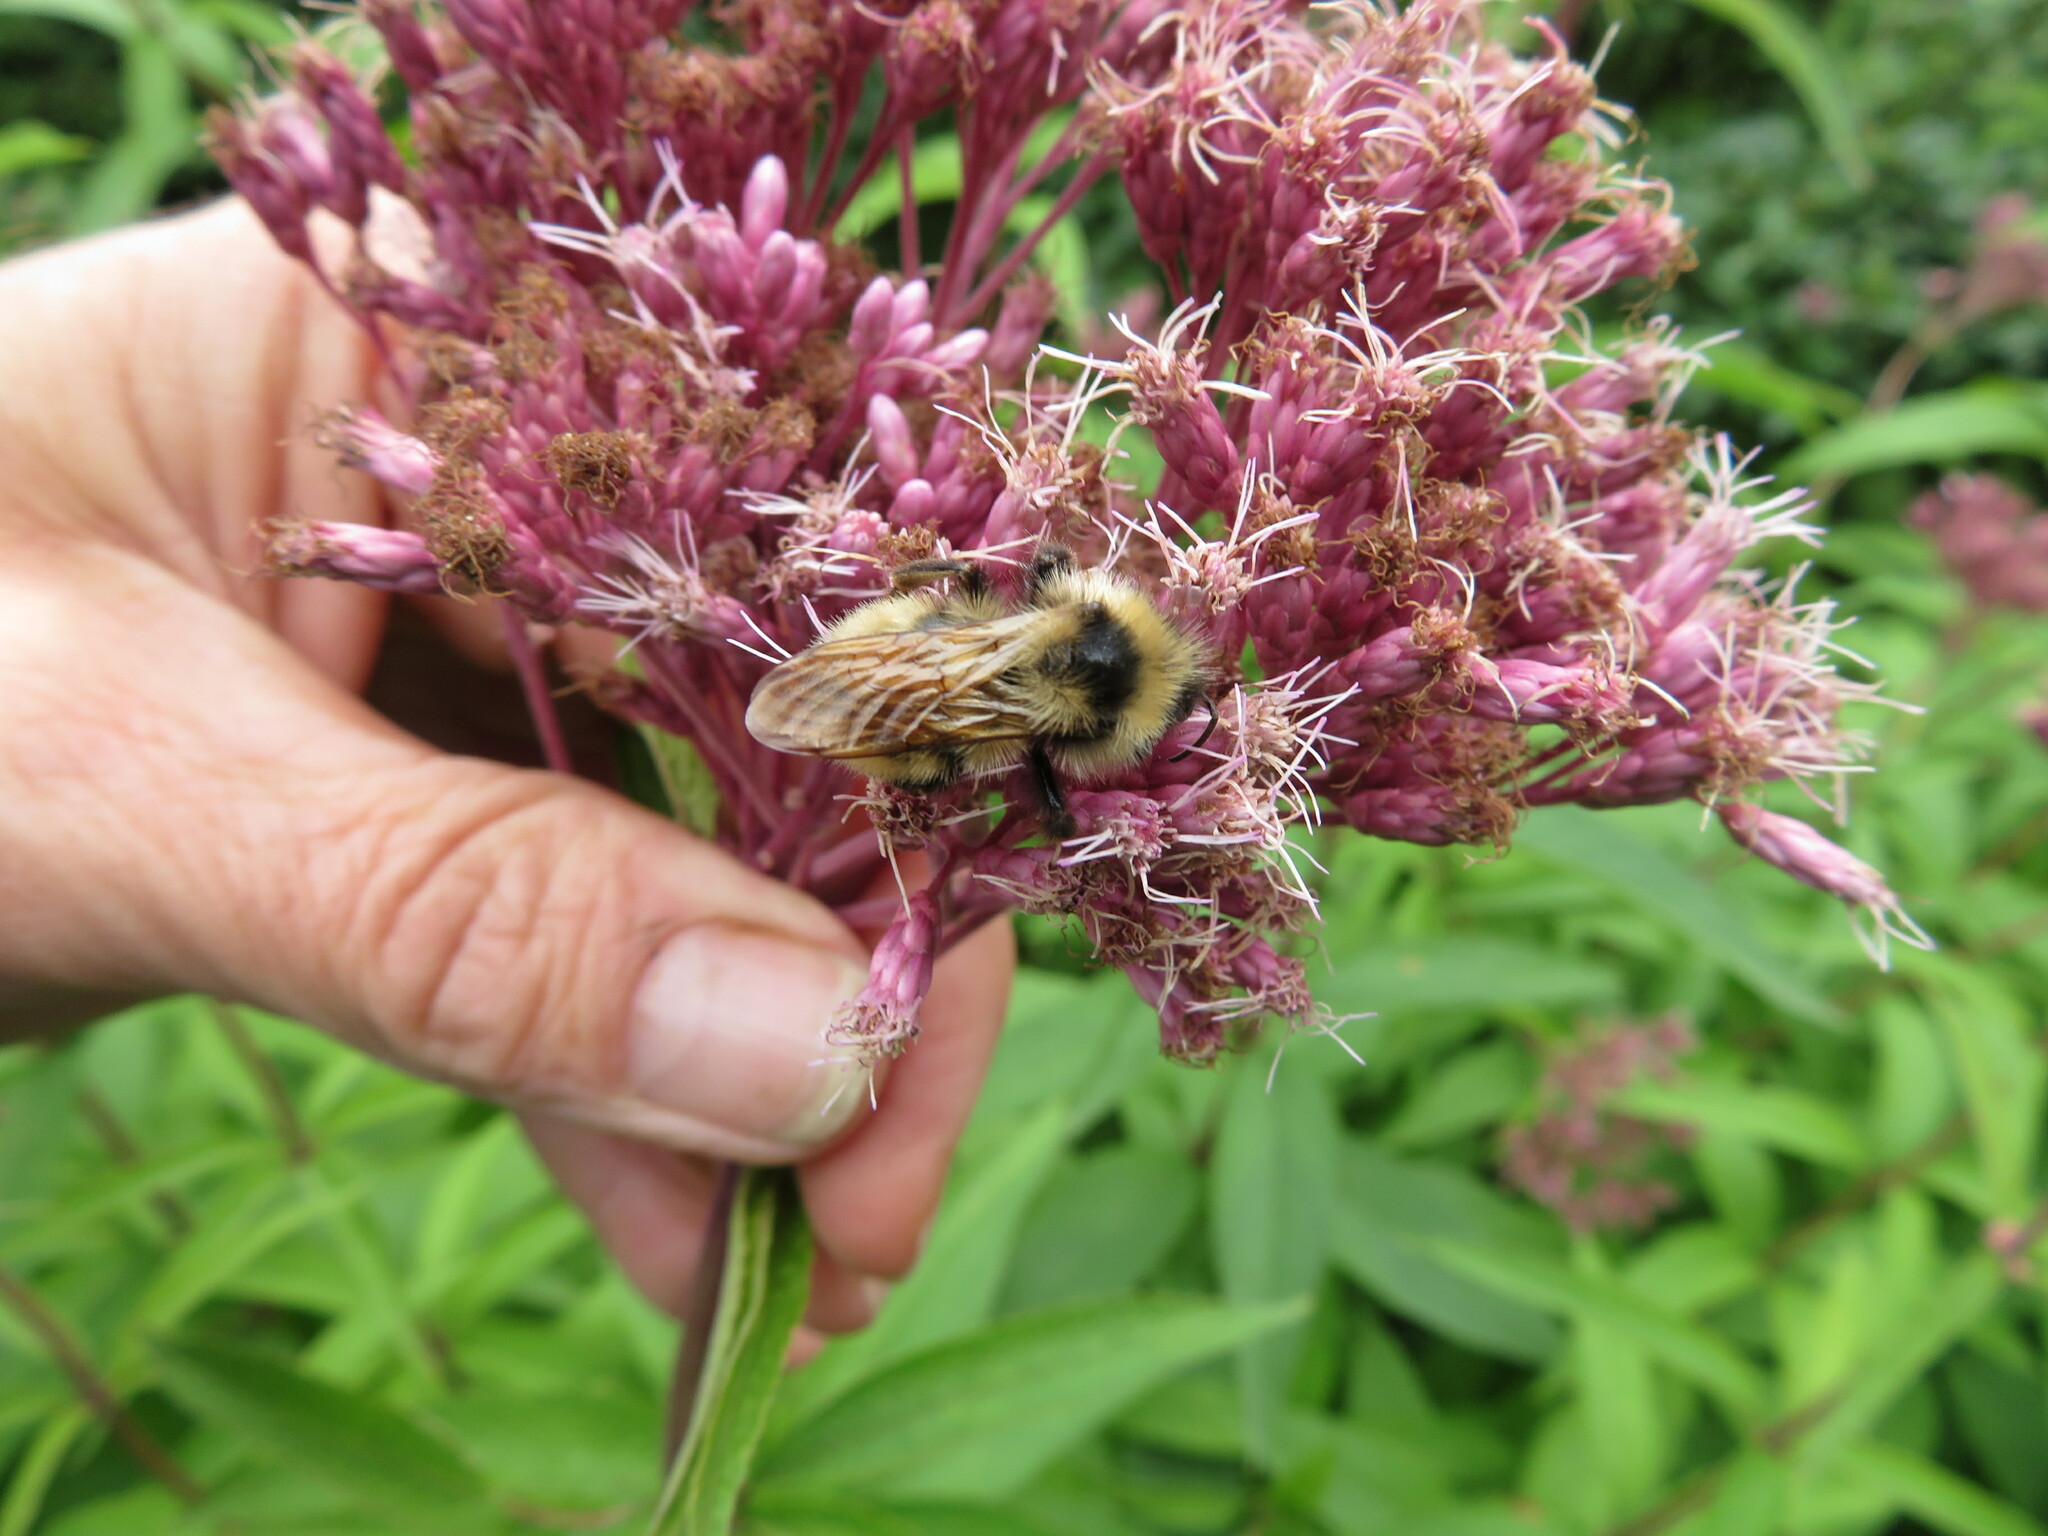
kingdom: Animalia
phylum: Arthropoda
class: Insecta
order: Hymenoptera
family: Apidae
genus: Bombus
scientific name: Bombus insularis
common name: Indiscriminate cuckoo bumble bee
